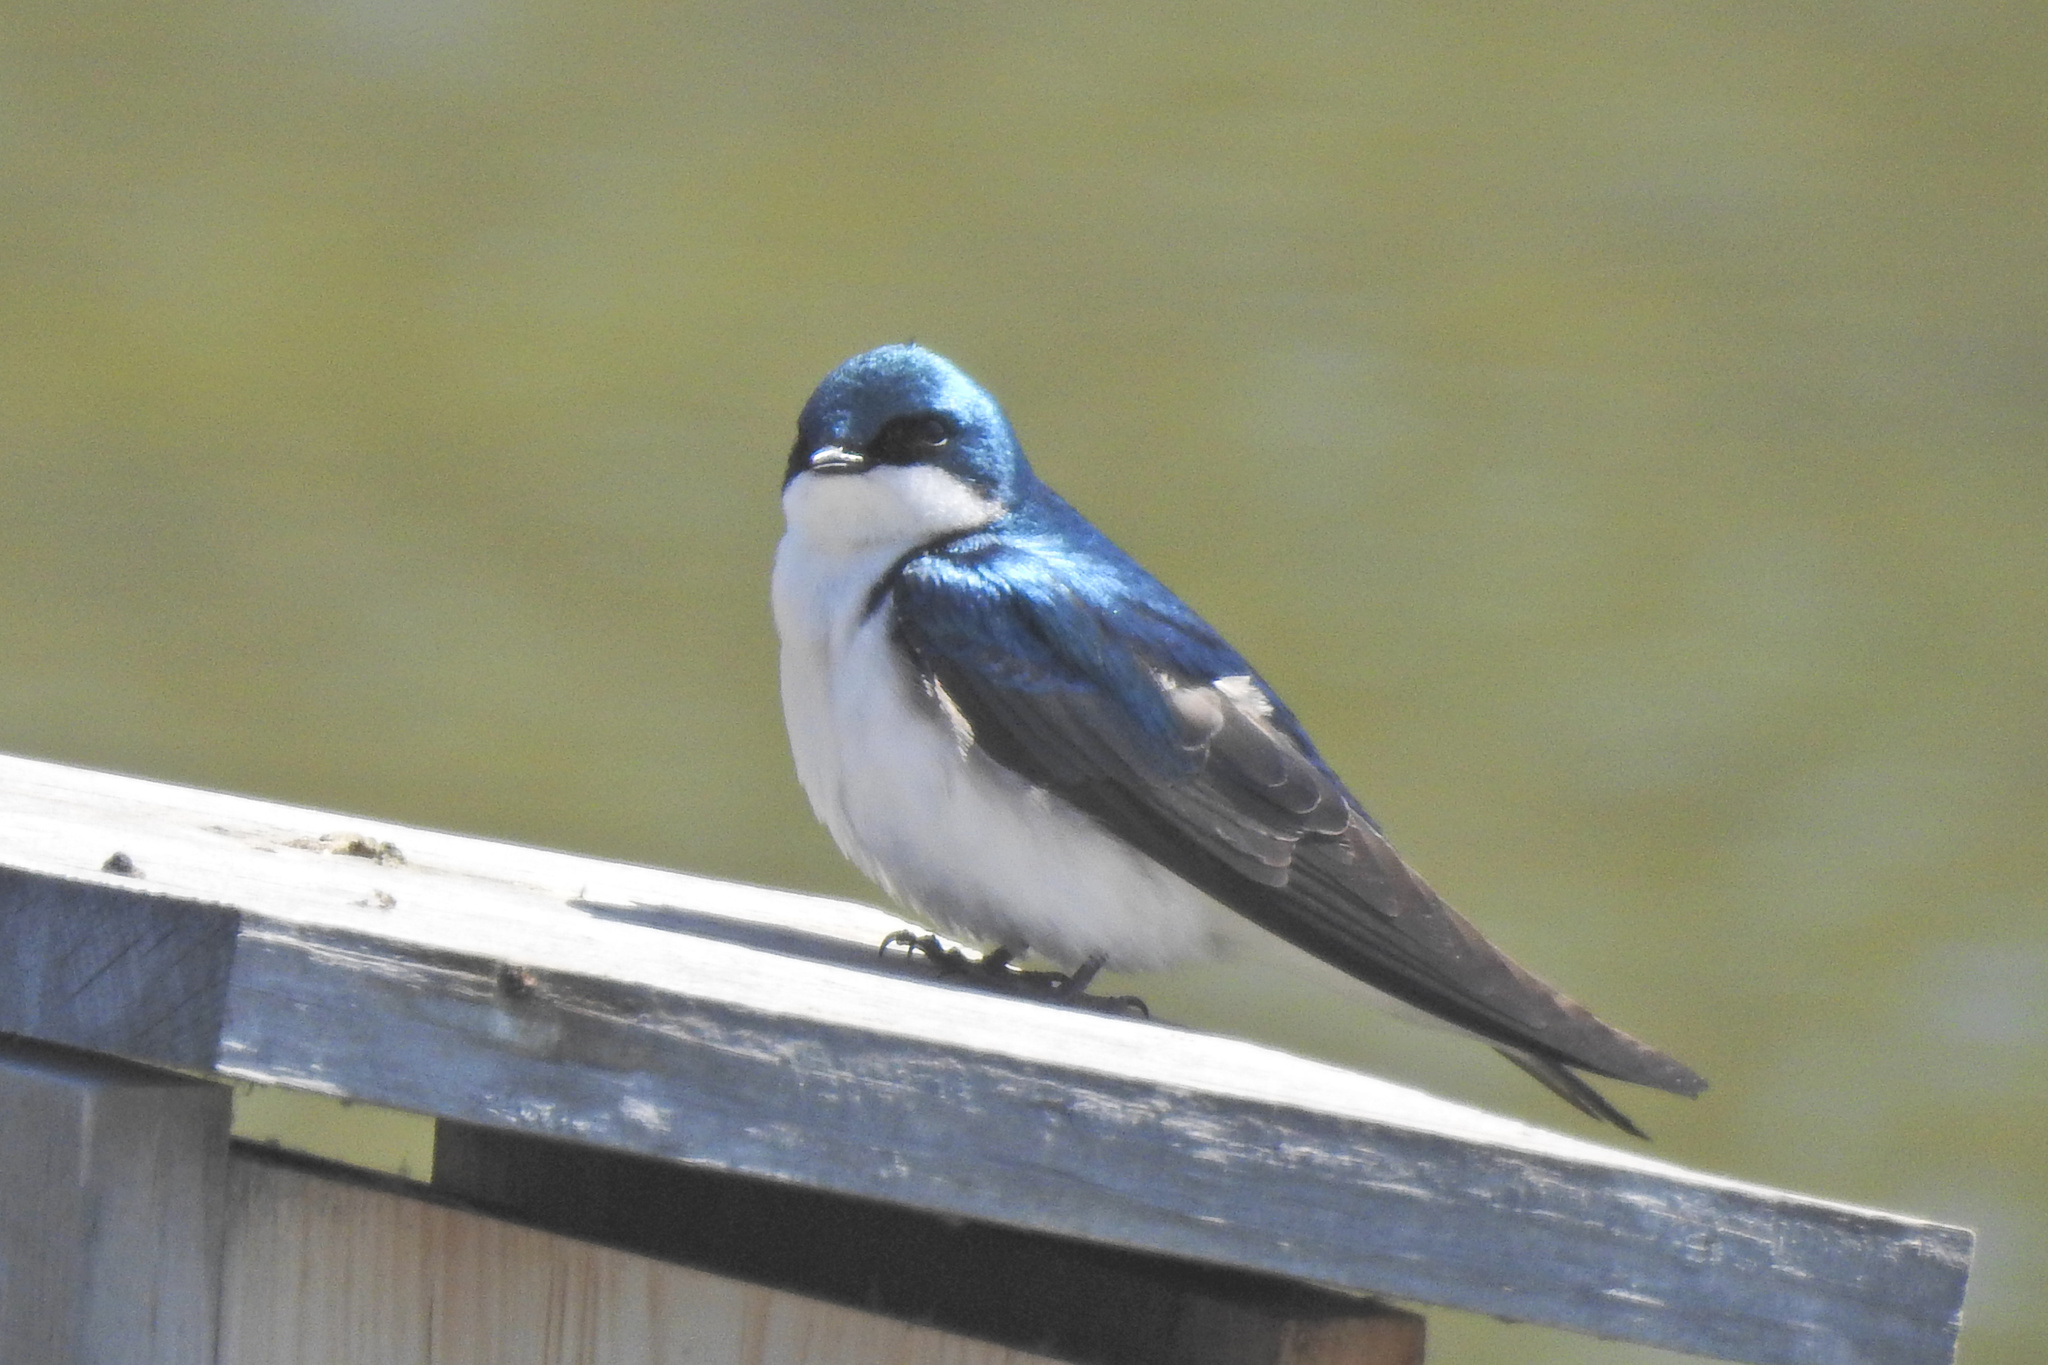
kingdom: Animalia
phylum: Chordata
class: Aves
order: Passeriformes
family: Hirundinidae
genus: Tachycineta
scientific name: Tachycineta bicolor
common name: Tree swallow
